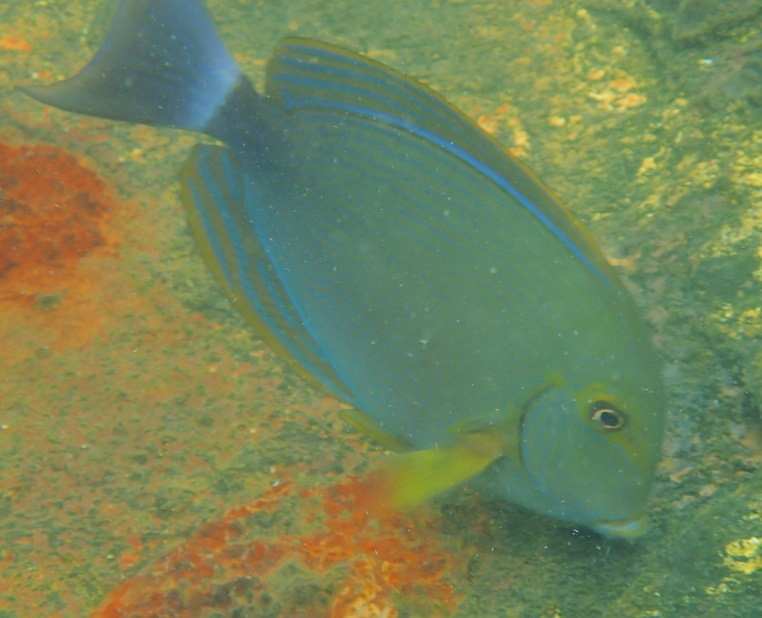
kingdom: Animalia
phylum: Chordata
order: Perciformes
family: Acanthuridae
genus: Acanthurus
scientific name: Acanthurus xanthopterus
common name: Cuvier's surgeonfish
